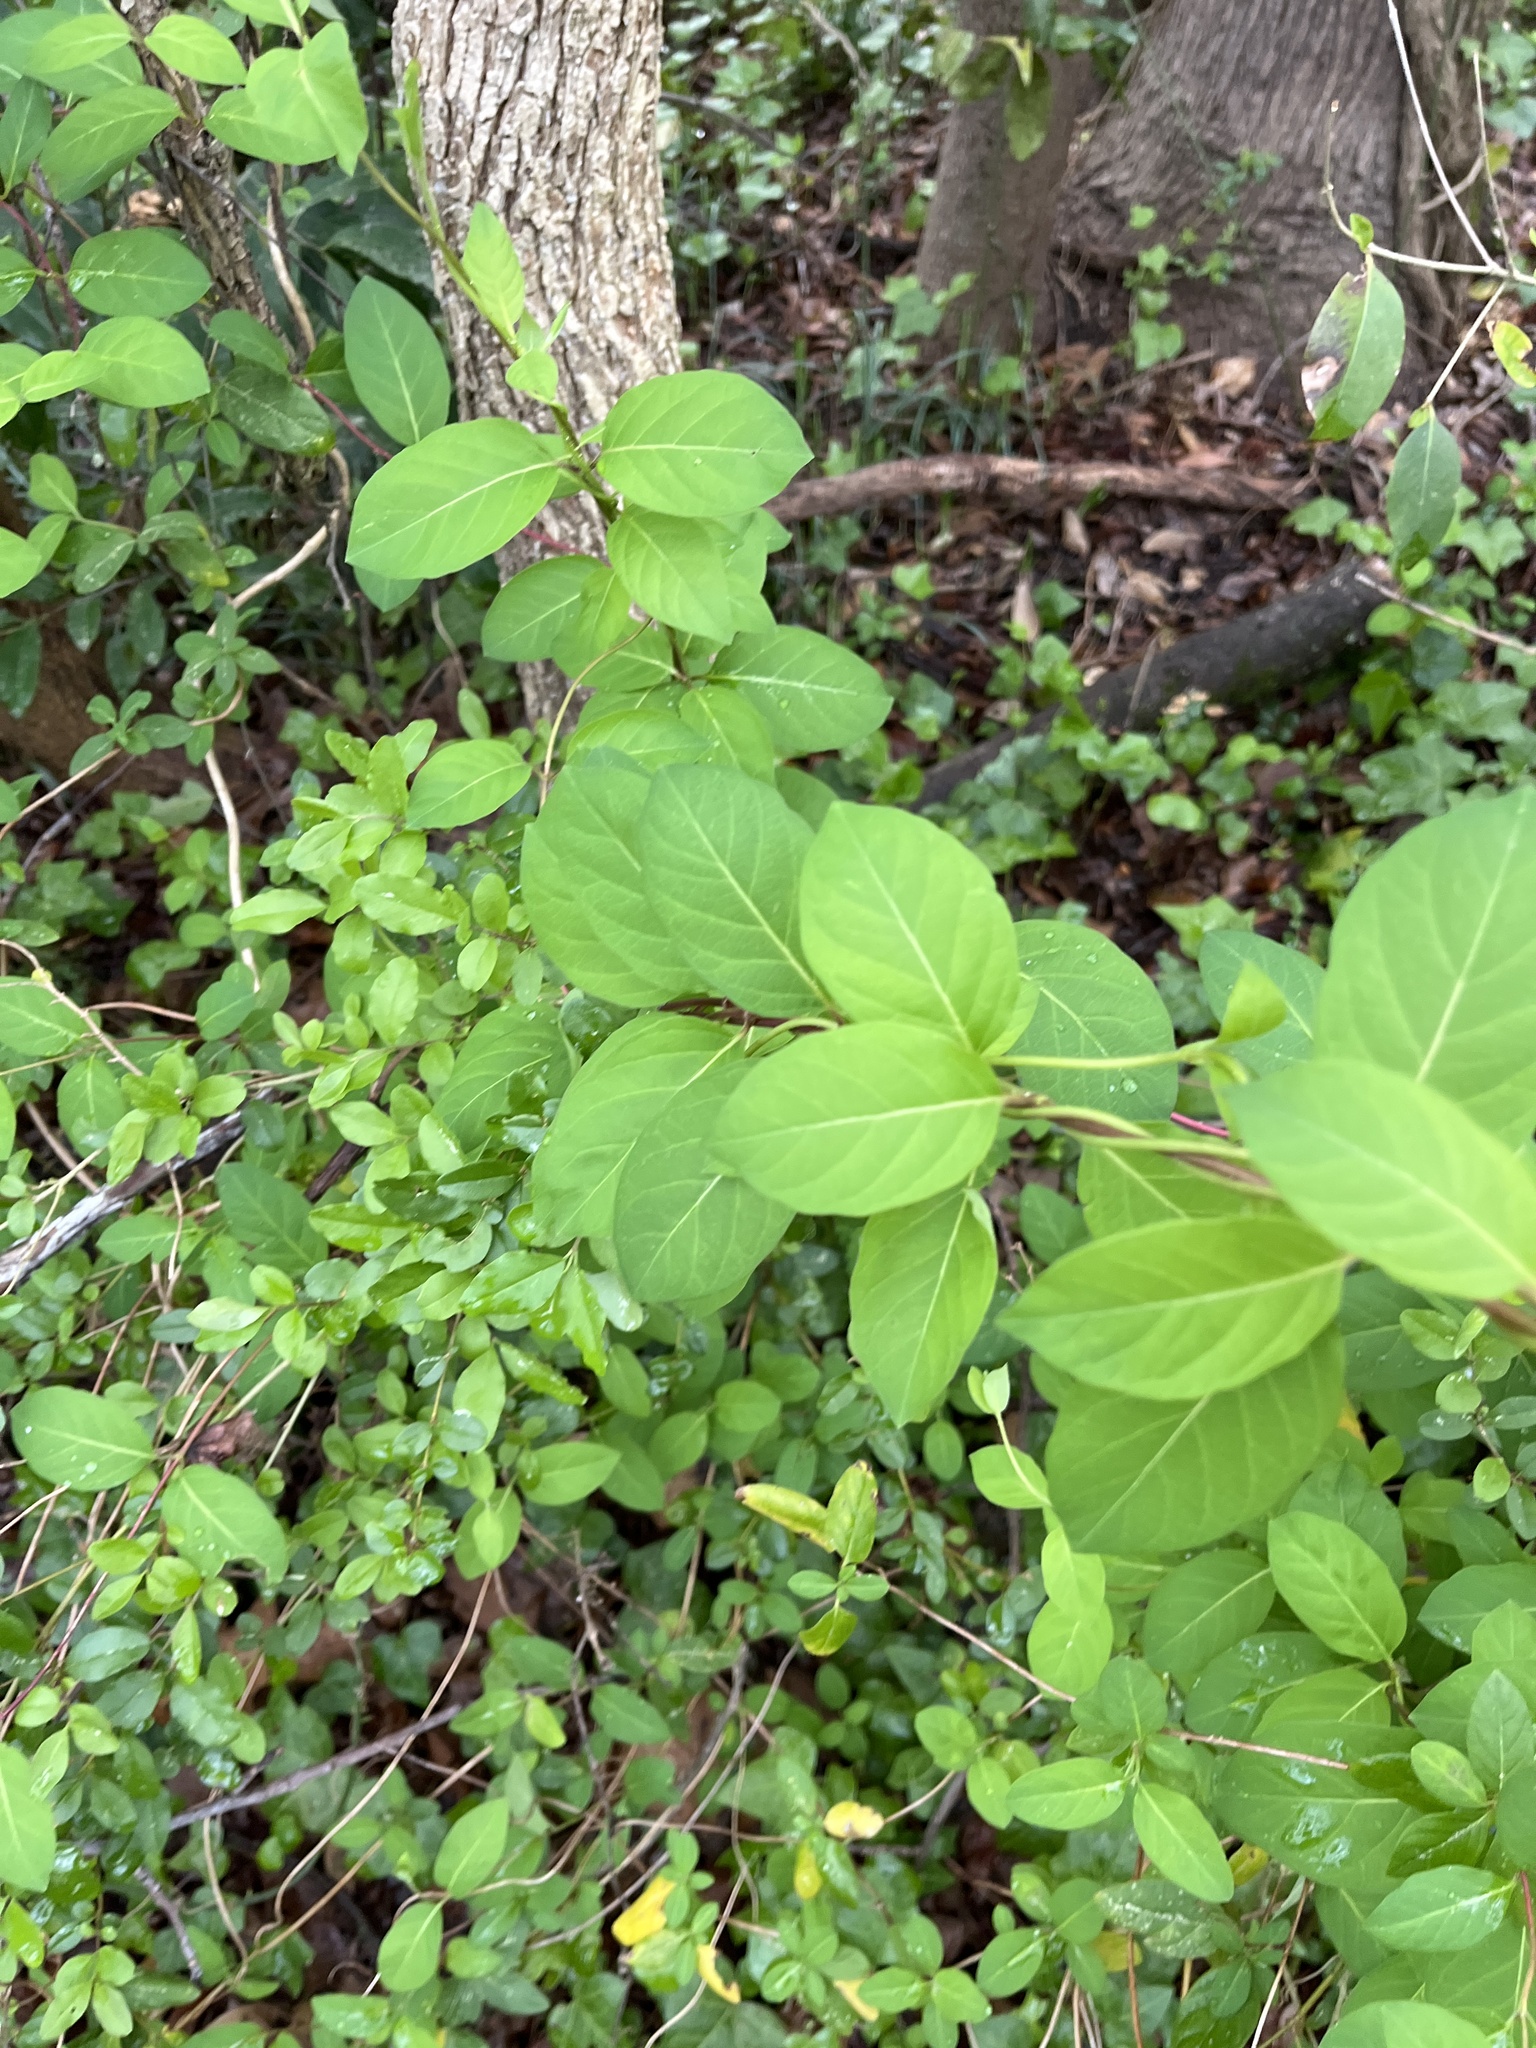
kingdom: Plantae
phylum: Tracheophyta
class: Magnoliopsida
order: Dipsacales
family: Caprifoliaceae
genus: Lonicera
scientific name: Lonicera japonica
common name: Japanese honeysuckle
